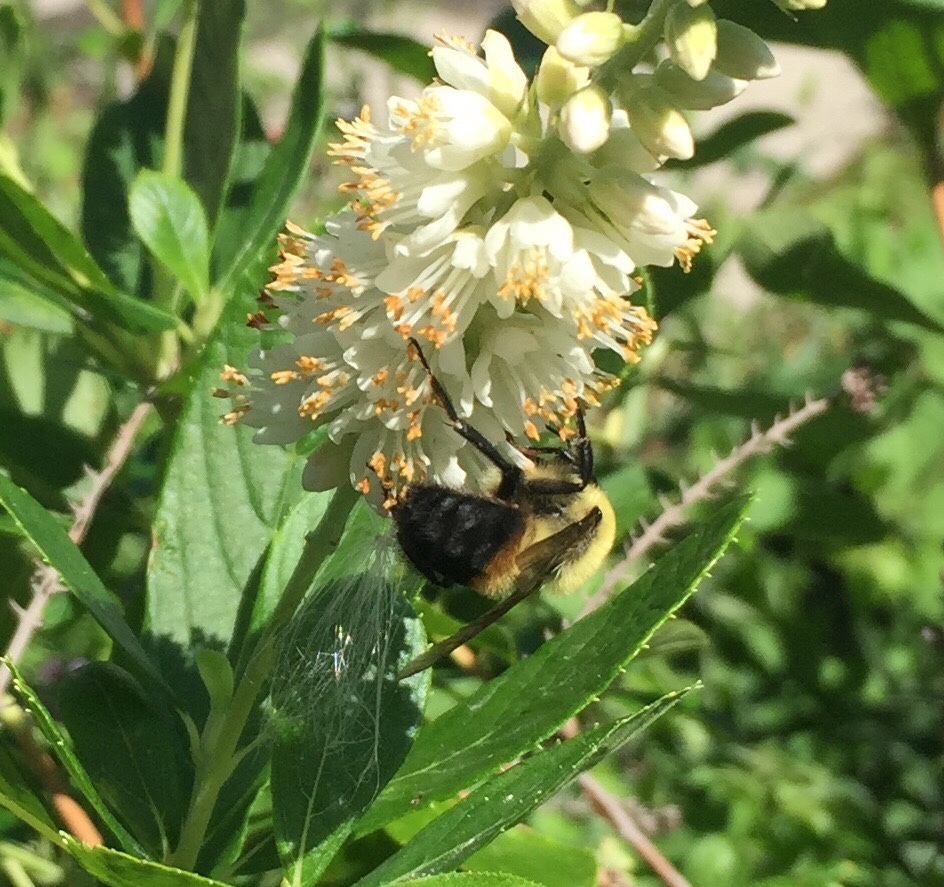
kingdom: Animalia
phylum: Arthropoda
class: Insecta
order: Hymenoptera
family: Apidae
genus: Bombus
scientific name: Bombus griseocollis
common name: Brown-belted bumble bee
